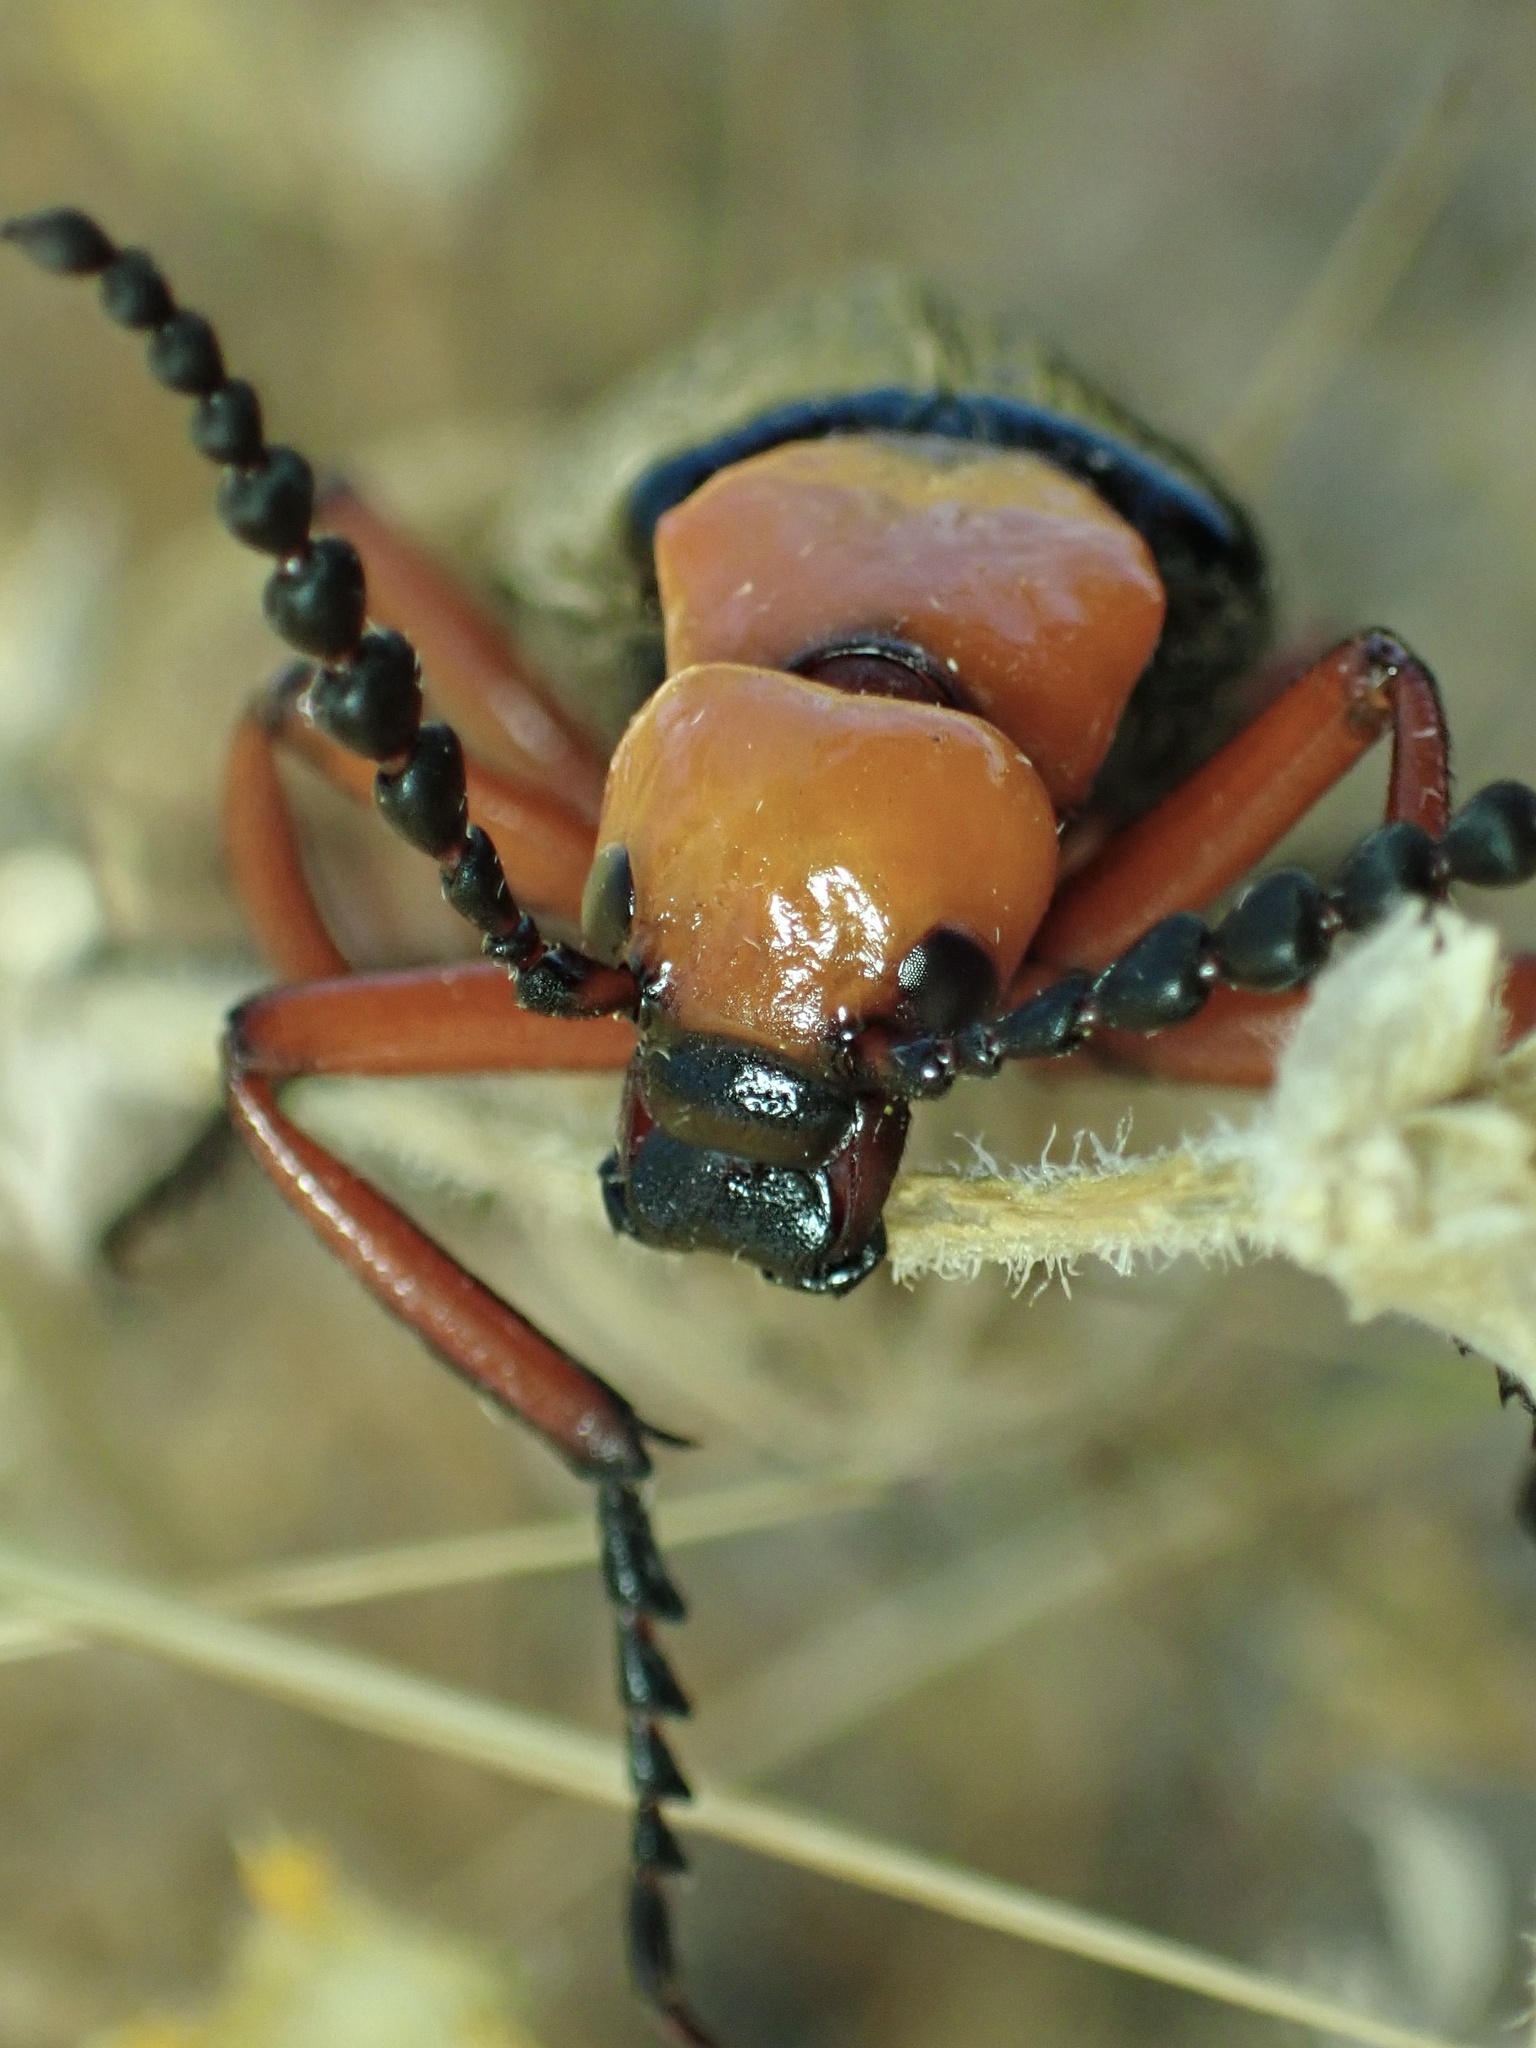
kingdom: Animalia
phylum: Arthropoda
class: Insecta
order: Coleoptera
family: Meloidae
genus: Lytta
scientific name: Lytta magister
